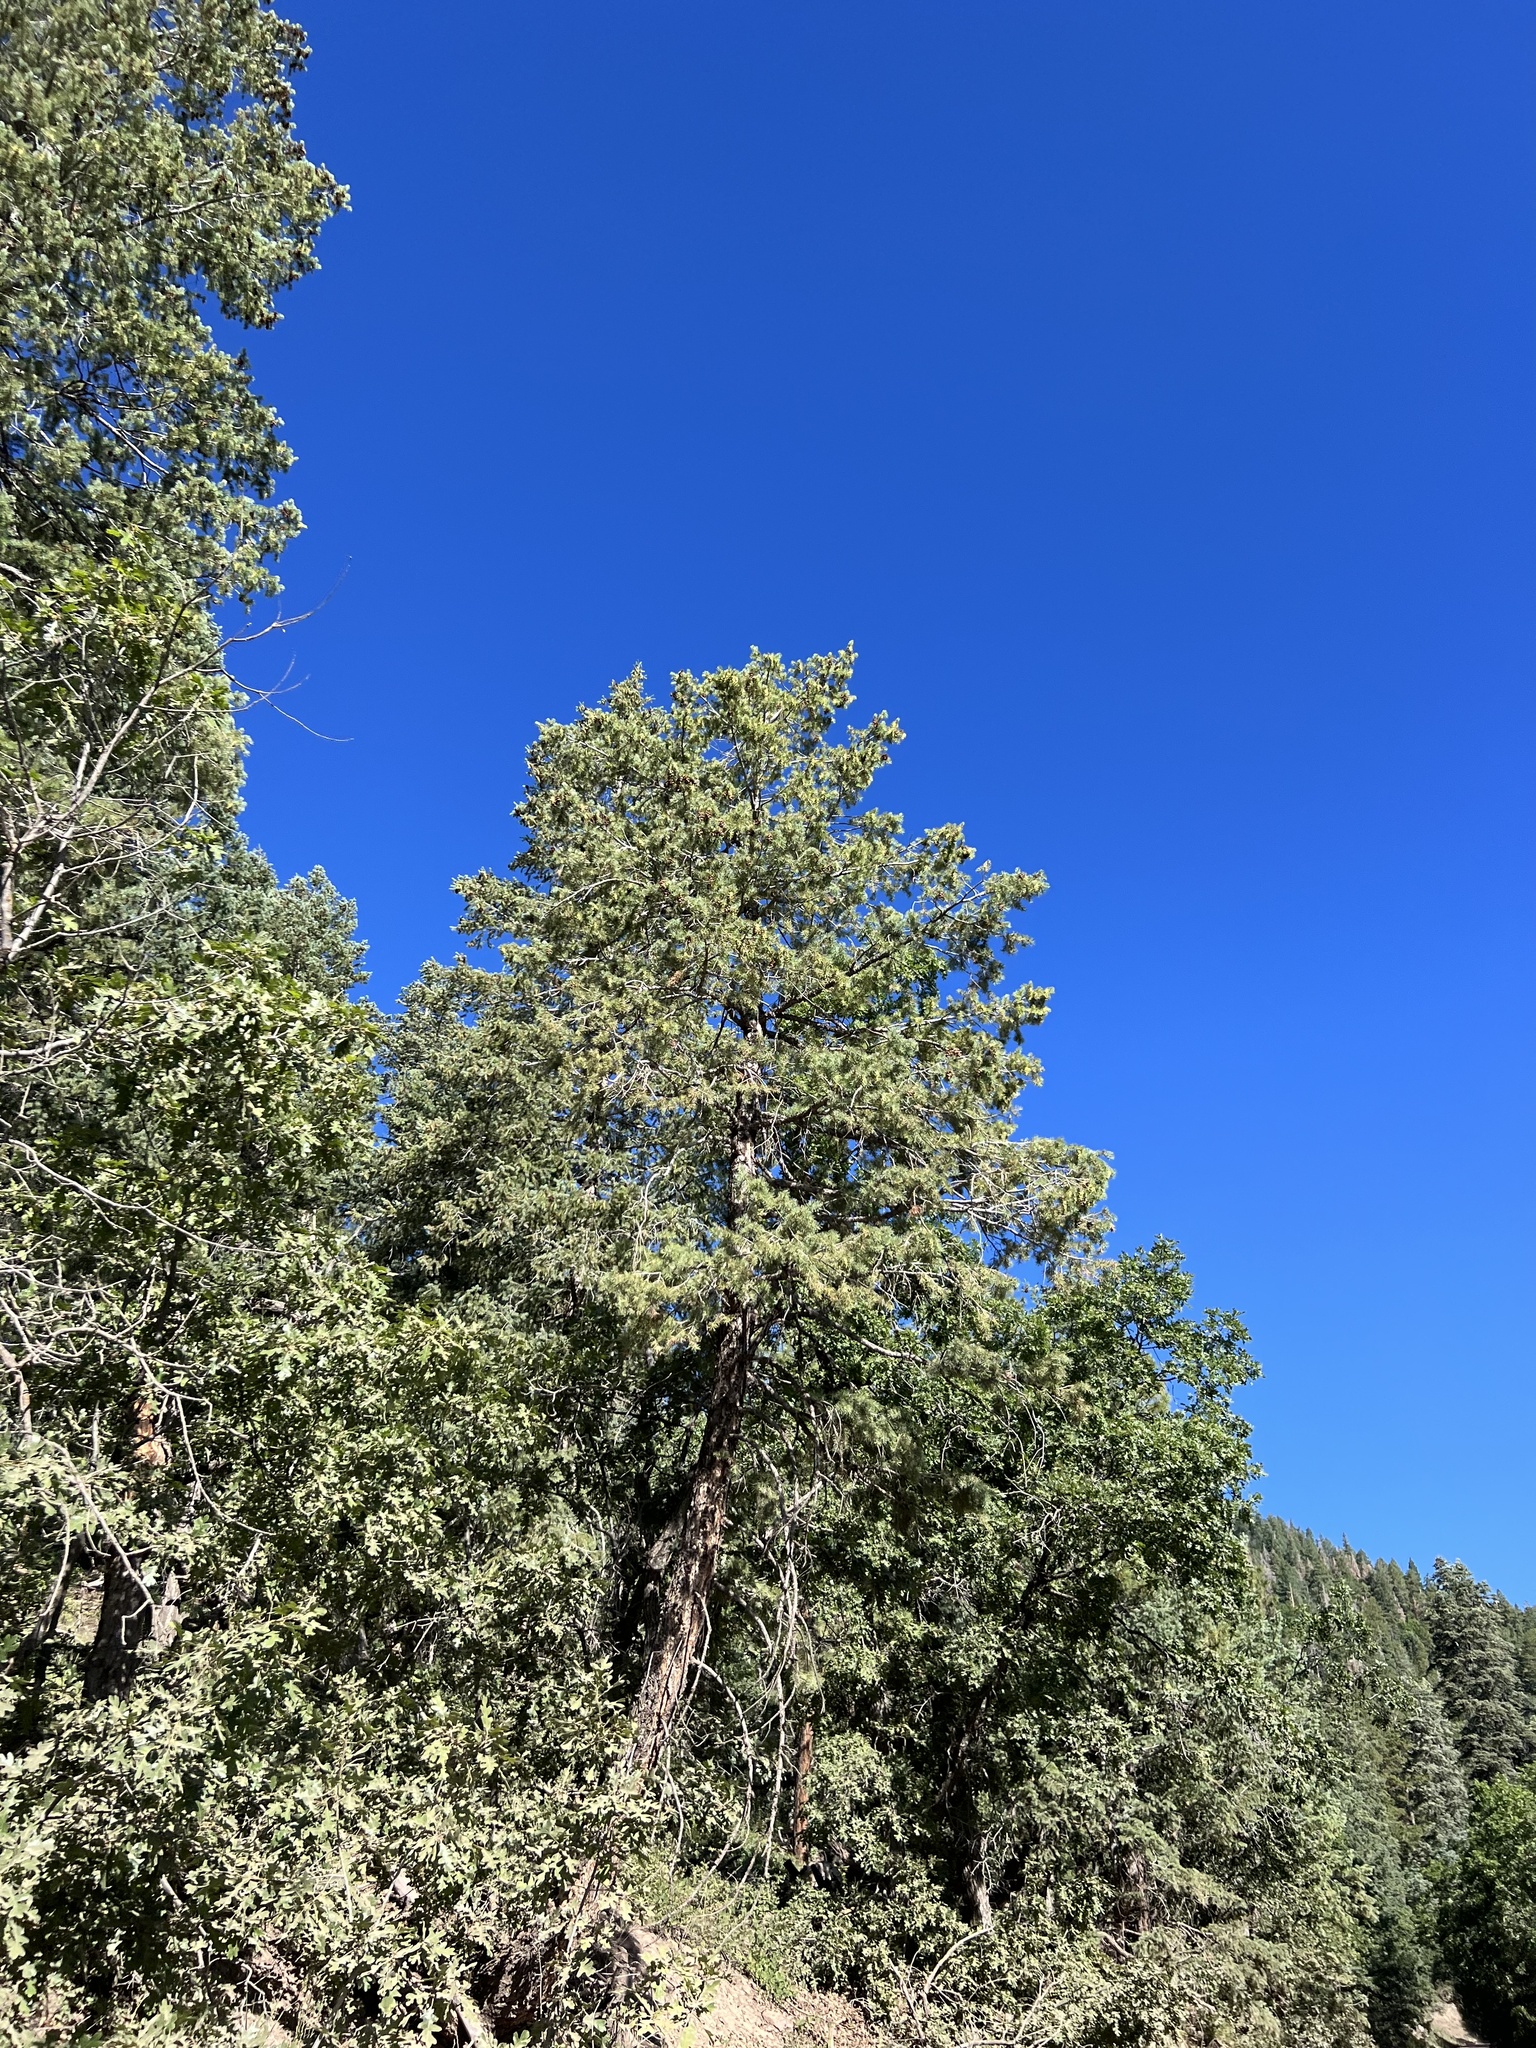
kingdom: Plantae
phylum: Tracheophyta
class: Pinopsida
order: Pinales
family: Pinaceae
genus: Pseudotsuga
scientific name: Pseudotsuga menziesii
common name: Douglas fir
